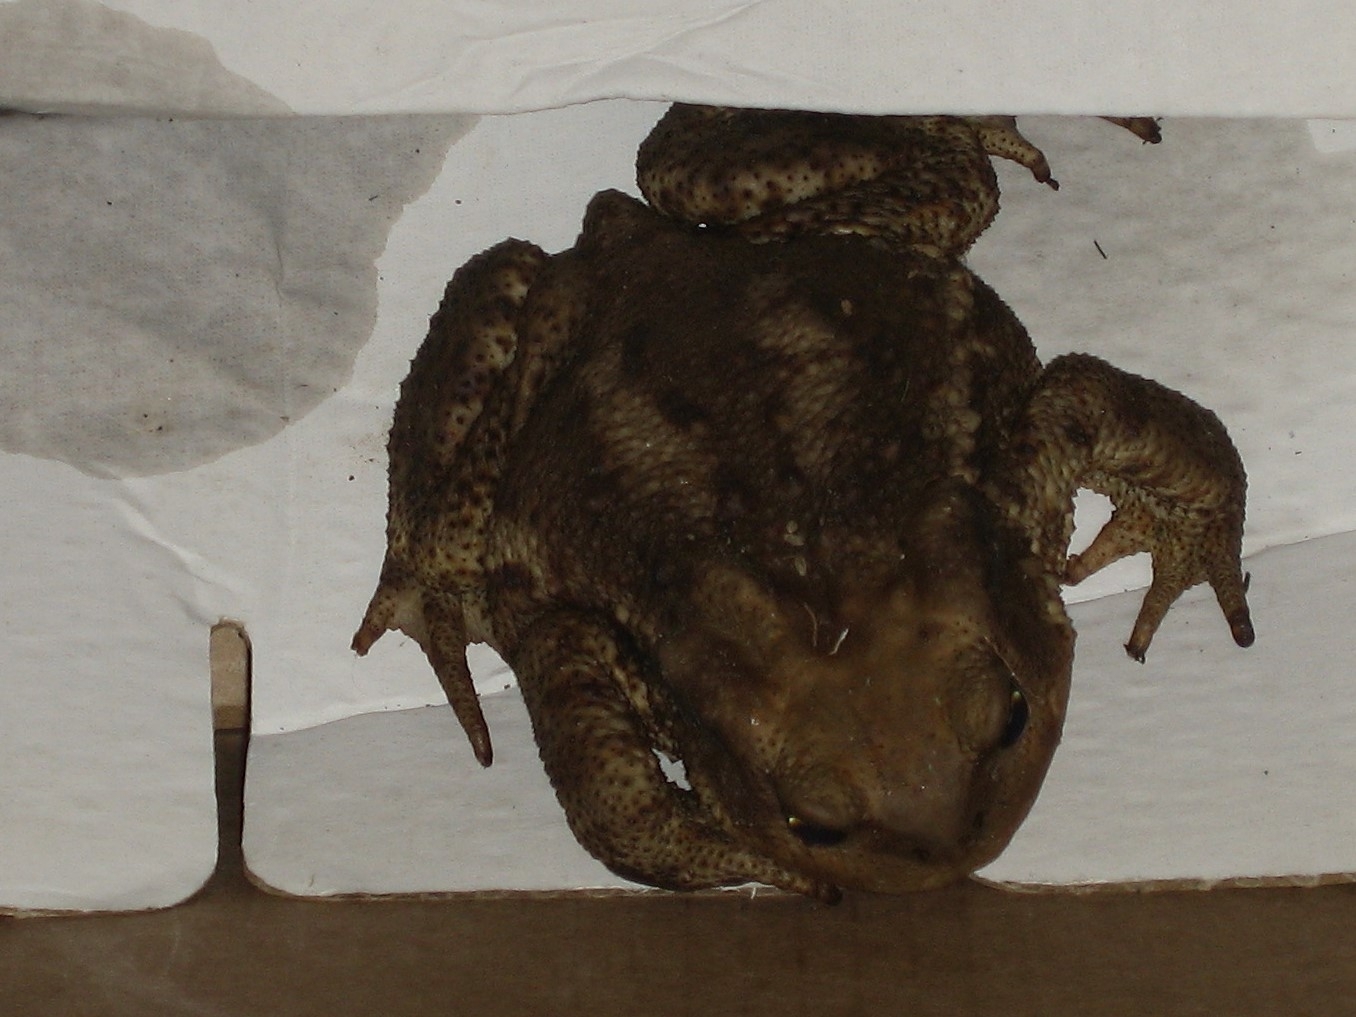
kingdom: Animalia
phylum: Chordata
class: Amphibia
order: Anura
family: Bufonidae
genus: Bufo
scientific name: Bufo bufo
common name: Common toad
